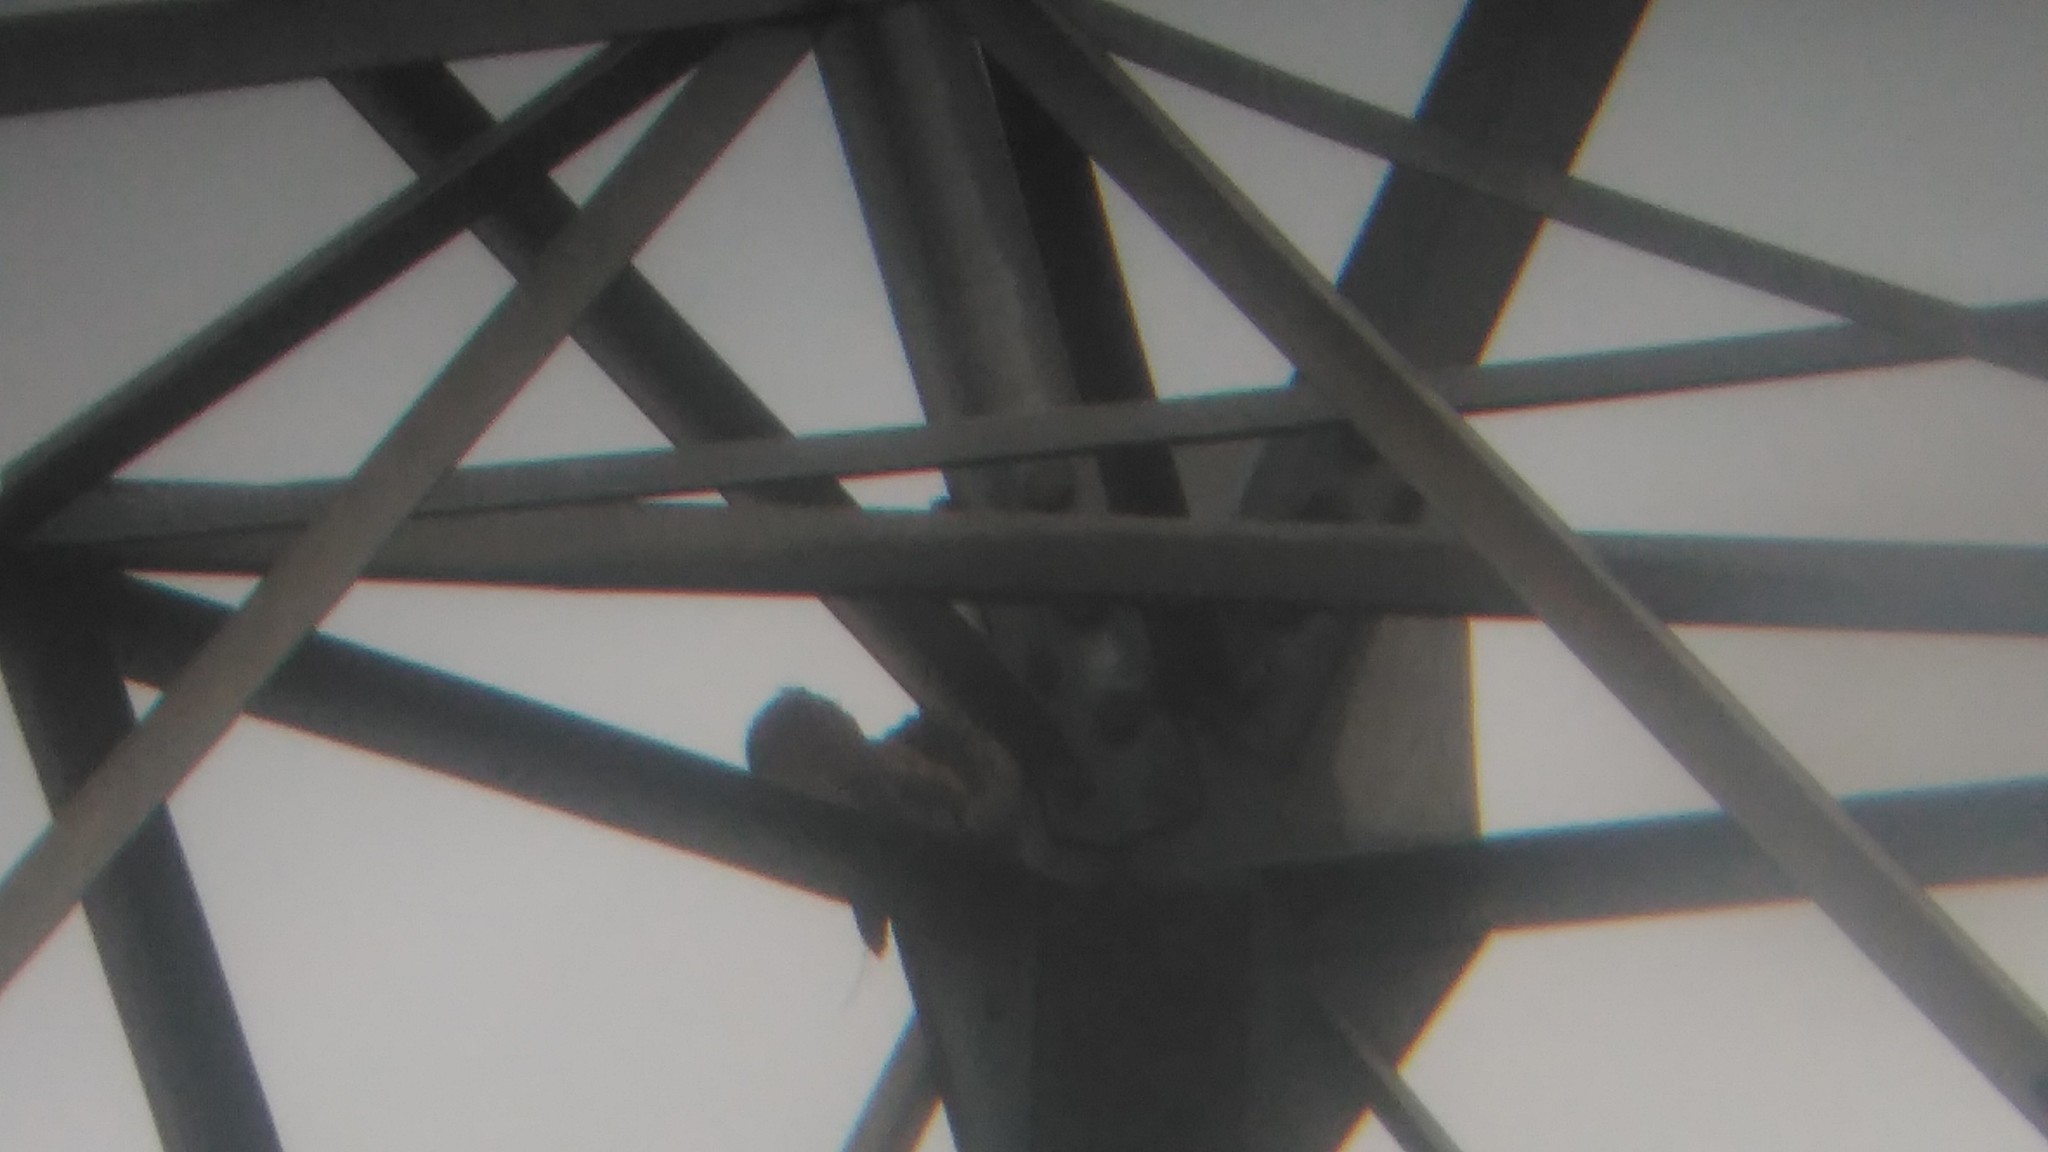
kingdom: Animalia
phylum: Chordata
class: Aves
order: Passeriformes
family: Furnariidae
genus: Furnarius
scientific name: Furnarius rufus
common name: Rufous hornero
